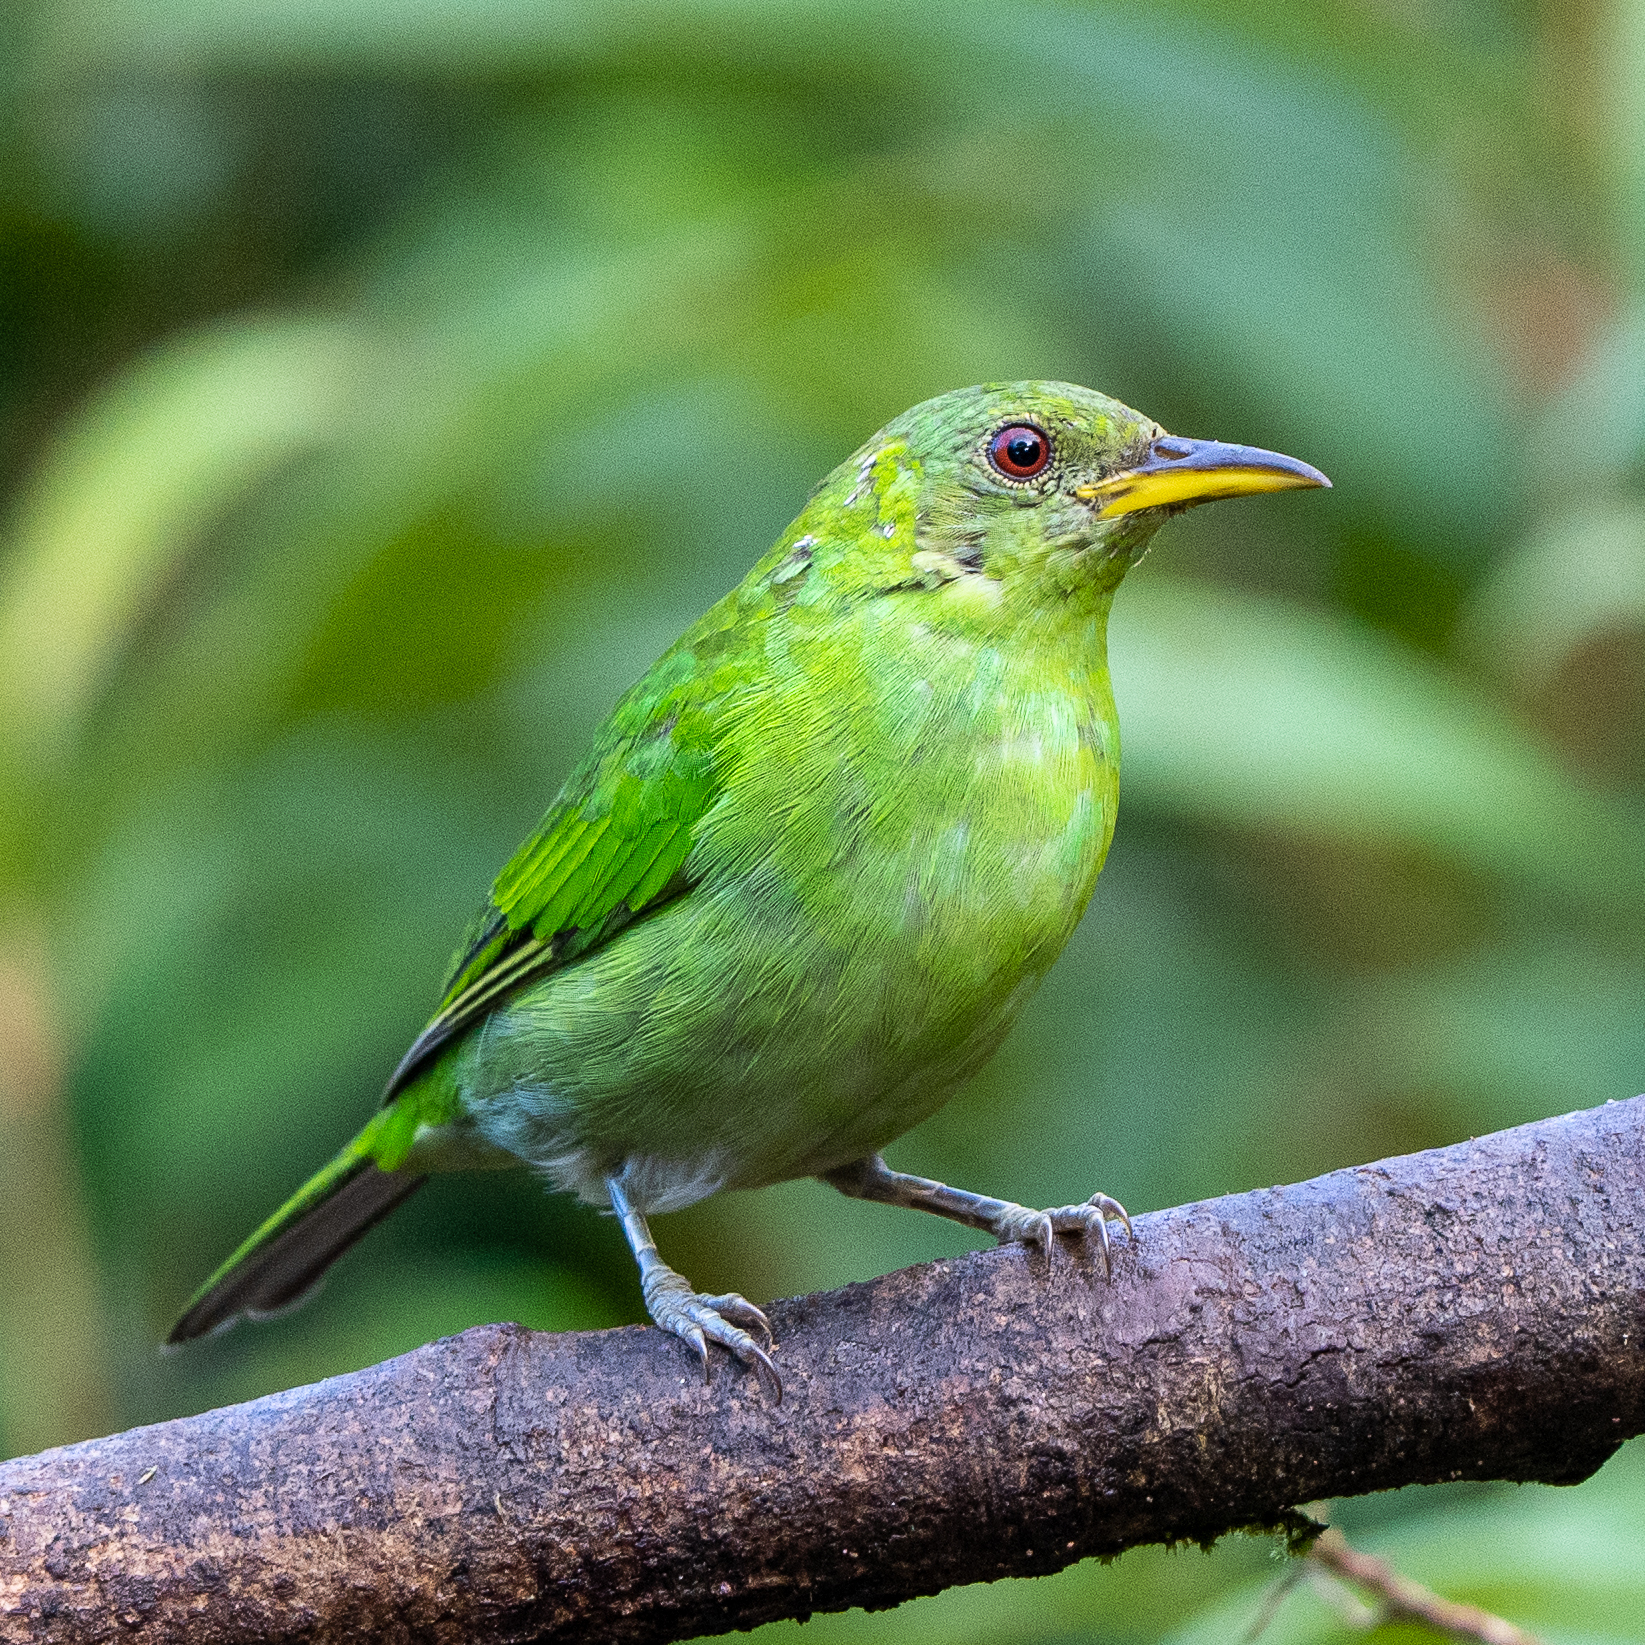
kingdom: Animalia
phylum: Chordata
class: Aves
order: Passeriformes
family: Thraupidae
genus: Chlorophanes
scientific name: Chlorophanes spiza
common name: Green honeycreeper
